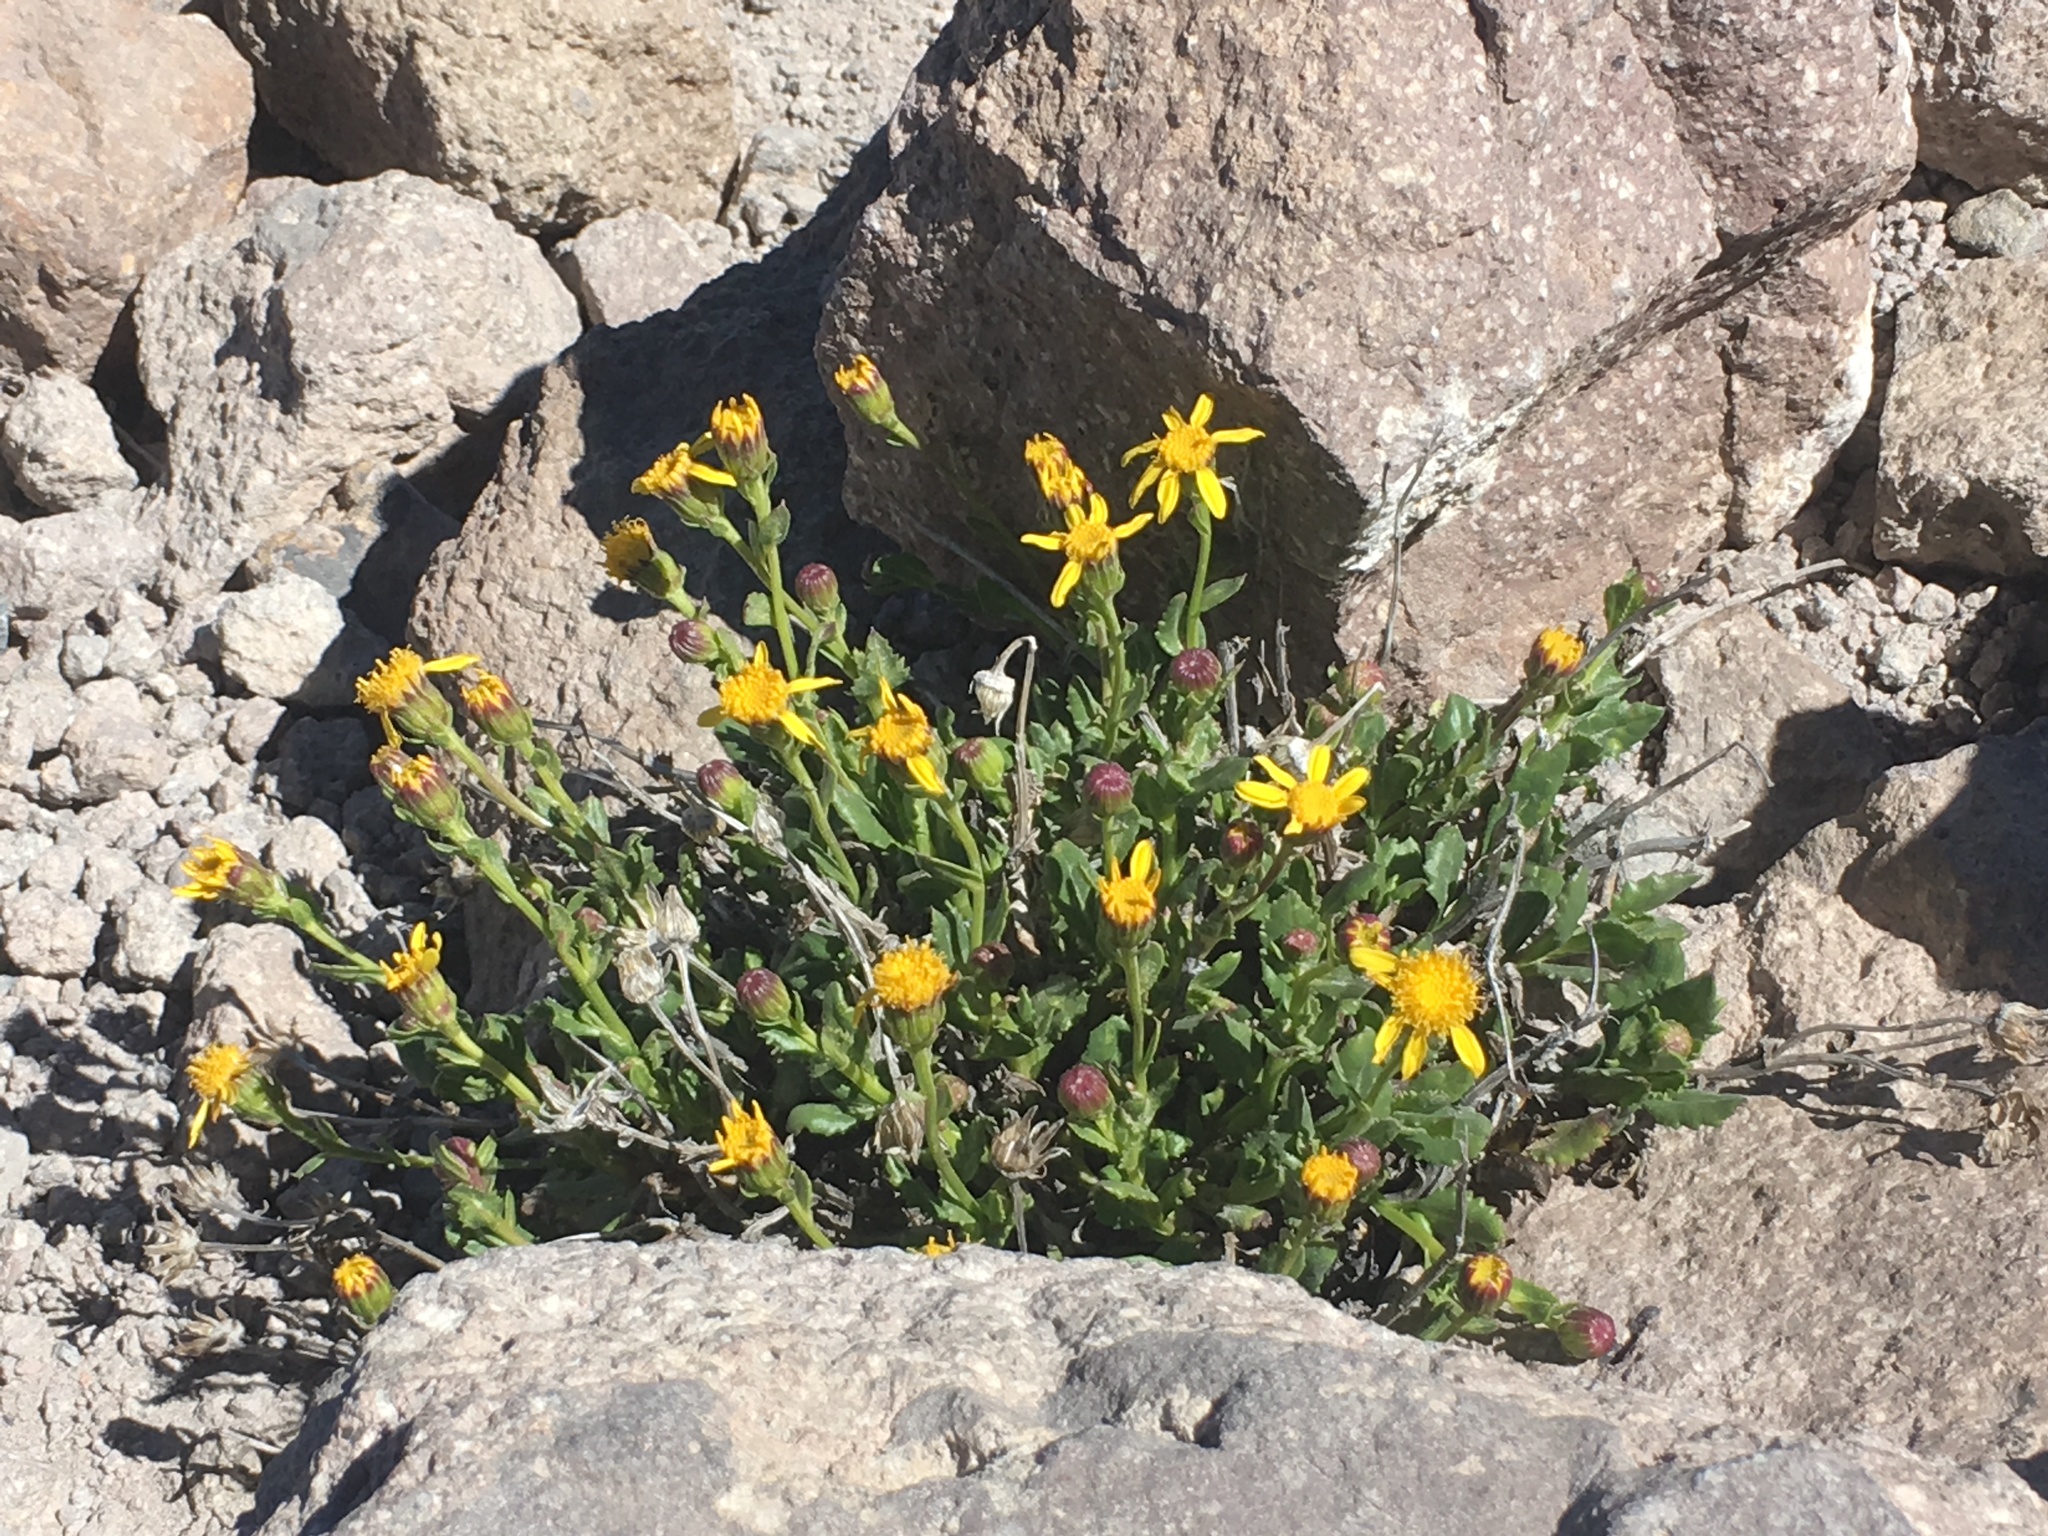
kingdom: Plantae
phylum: Tracheophyta
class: Magnoliopsida
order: Asterales
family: Asteraceae
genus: Senecio
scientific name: Senecio fremontii
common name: Fremont's groundsel
